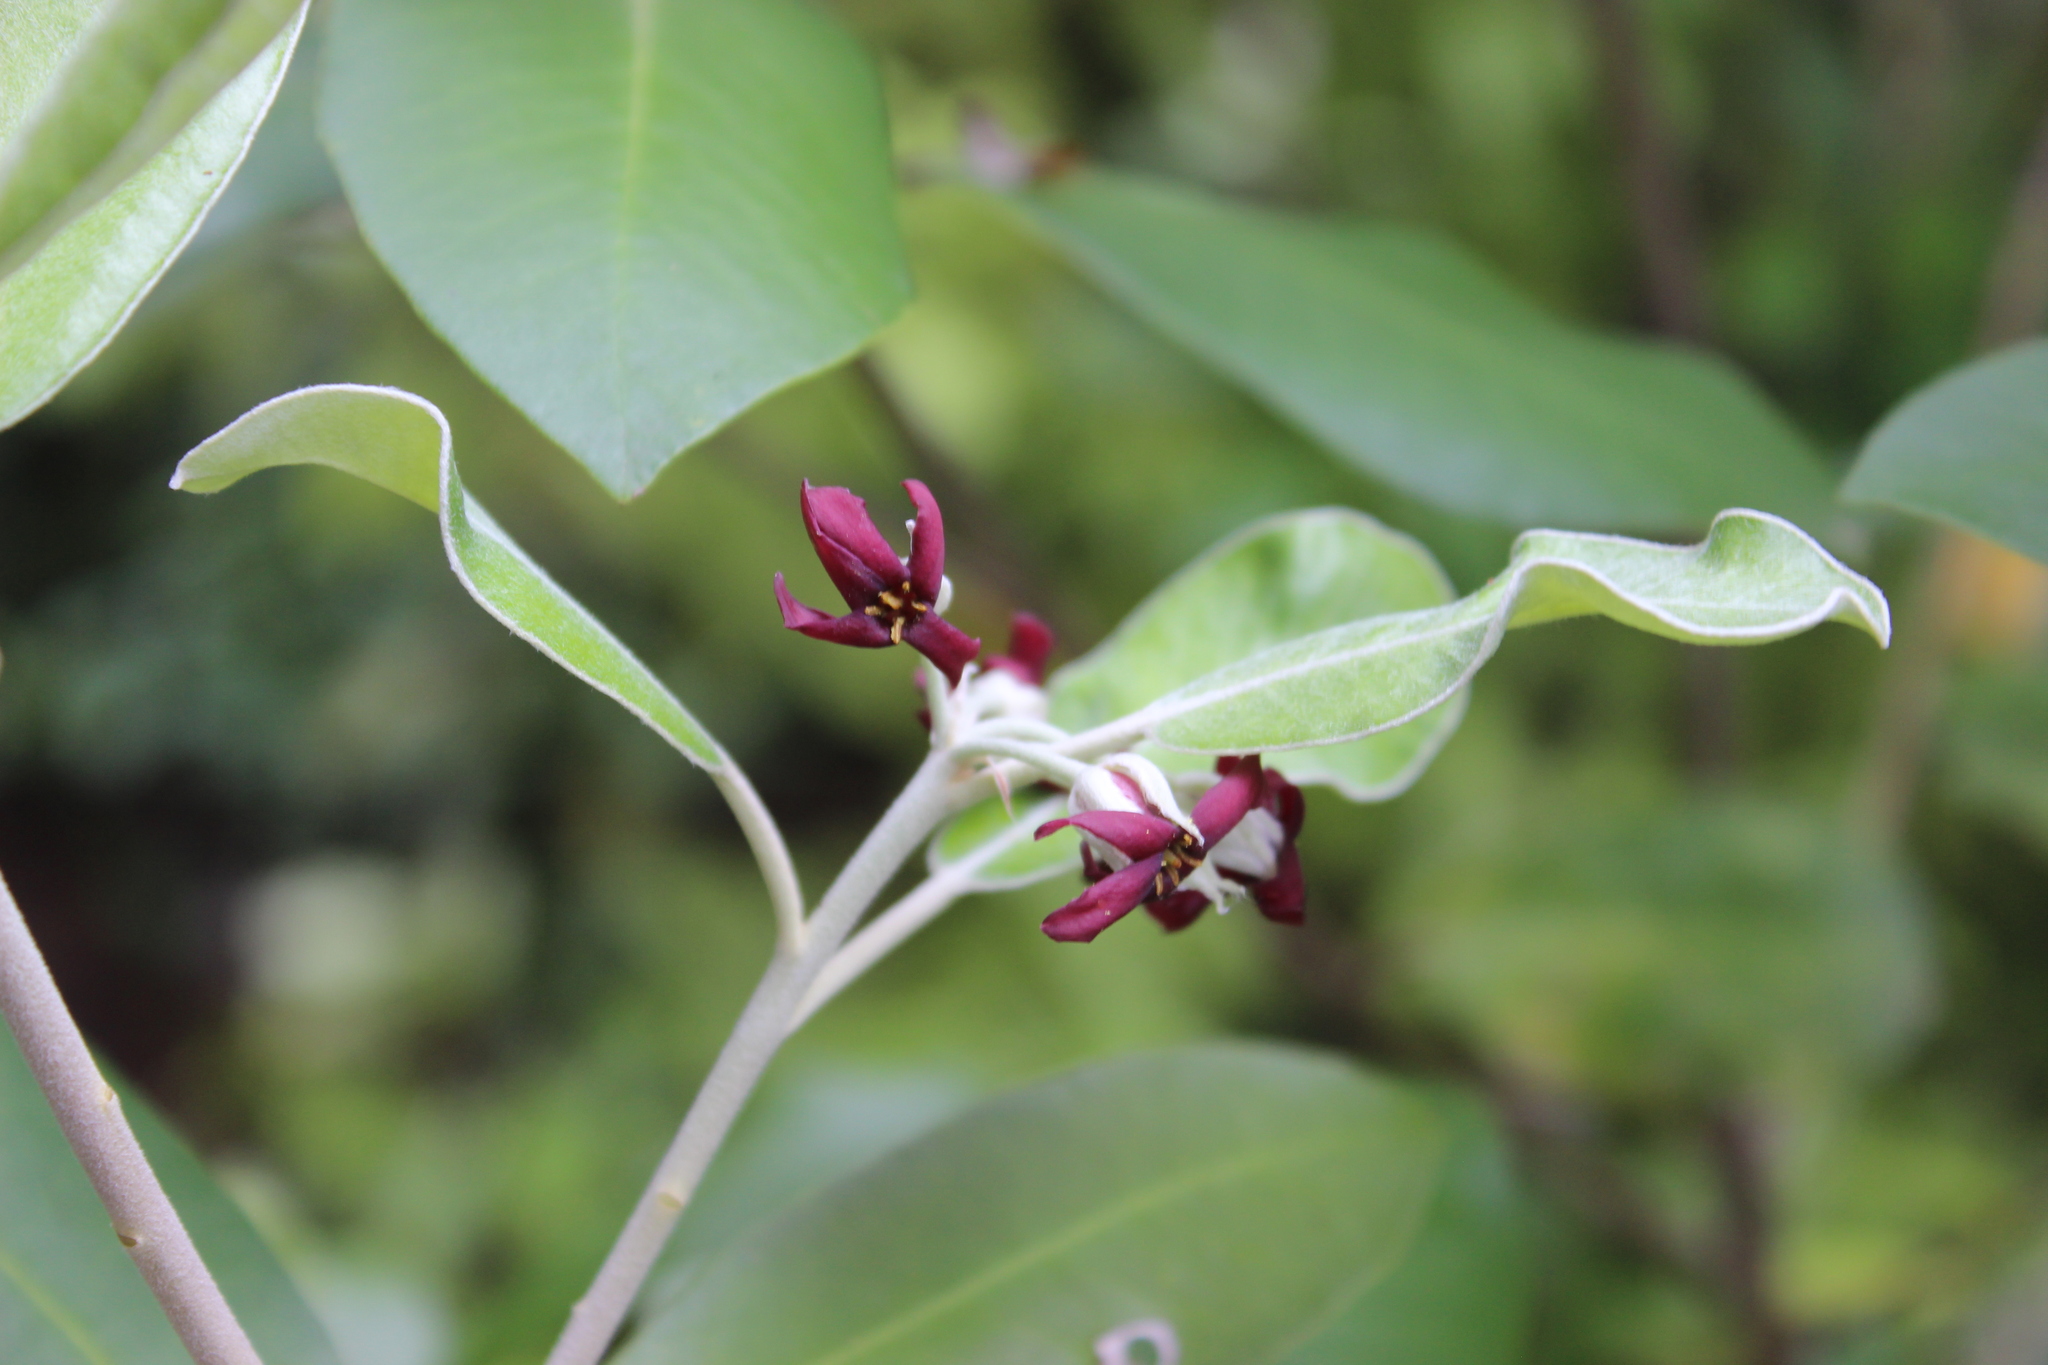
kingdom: Plantae
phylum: Tracheophyta
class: Magnoliopsida
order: Apiales
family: Pittosporaceae
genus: Pittosporum
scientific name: Pittosporum ralphii
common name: Ralph's desertwillow
